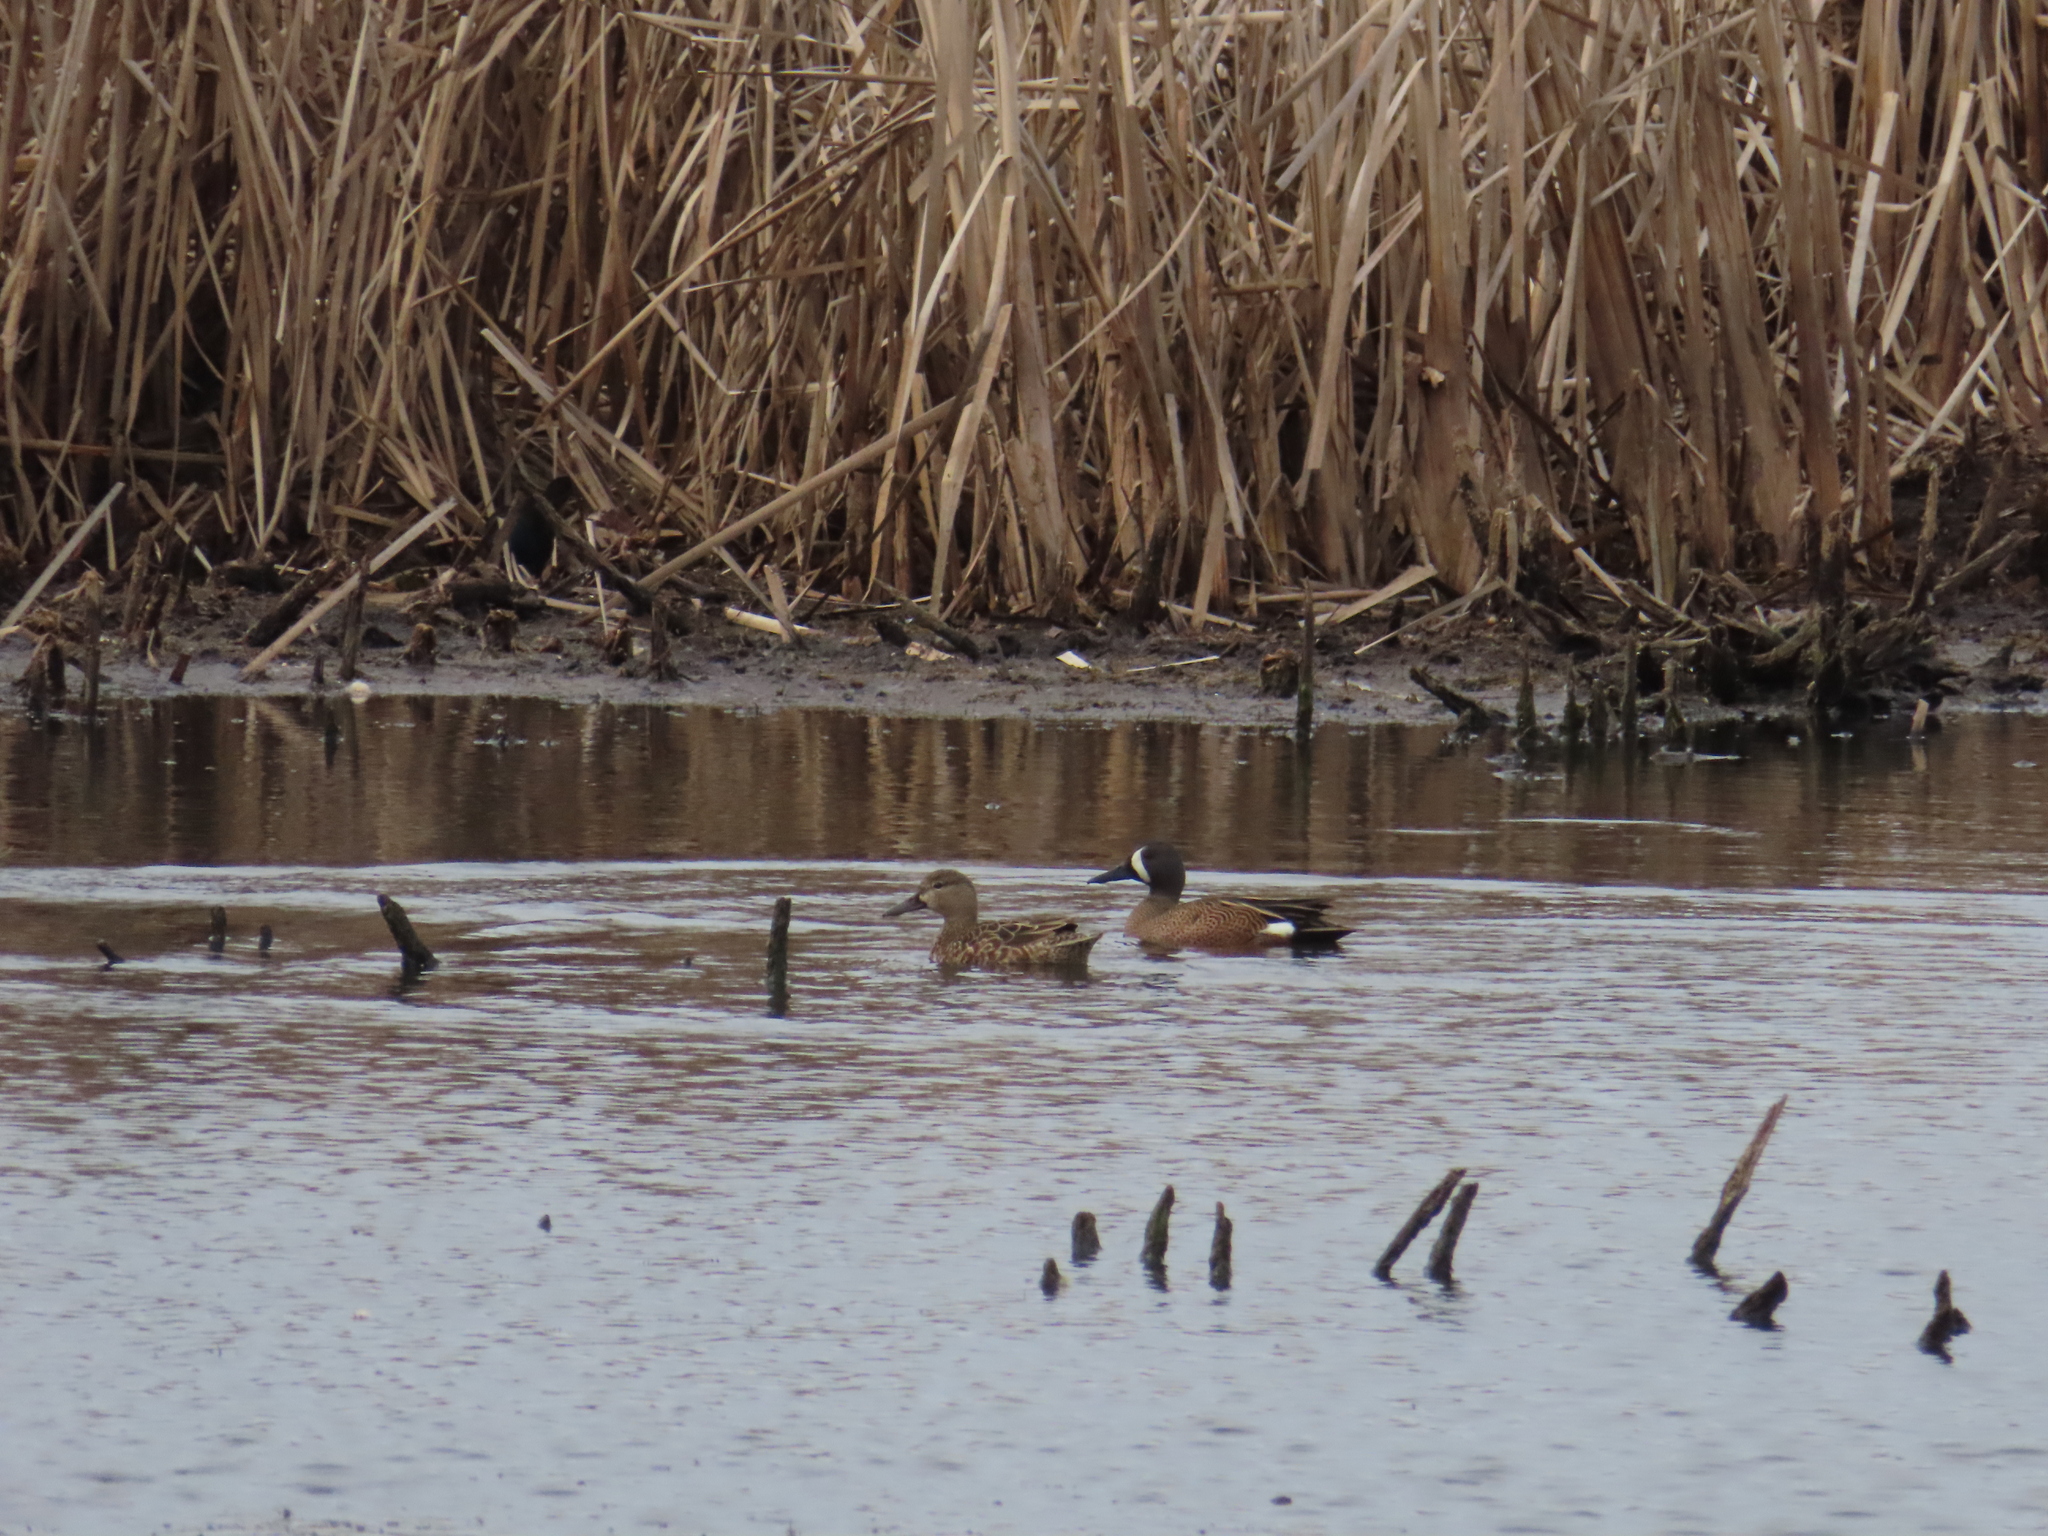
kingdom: Animalia
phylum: Chordata
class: Aves
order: Anseriformes
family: Anatidae
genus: Spatula
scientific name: Spatula discors
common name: Blue-winged teal
